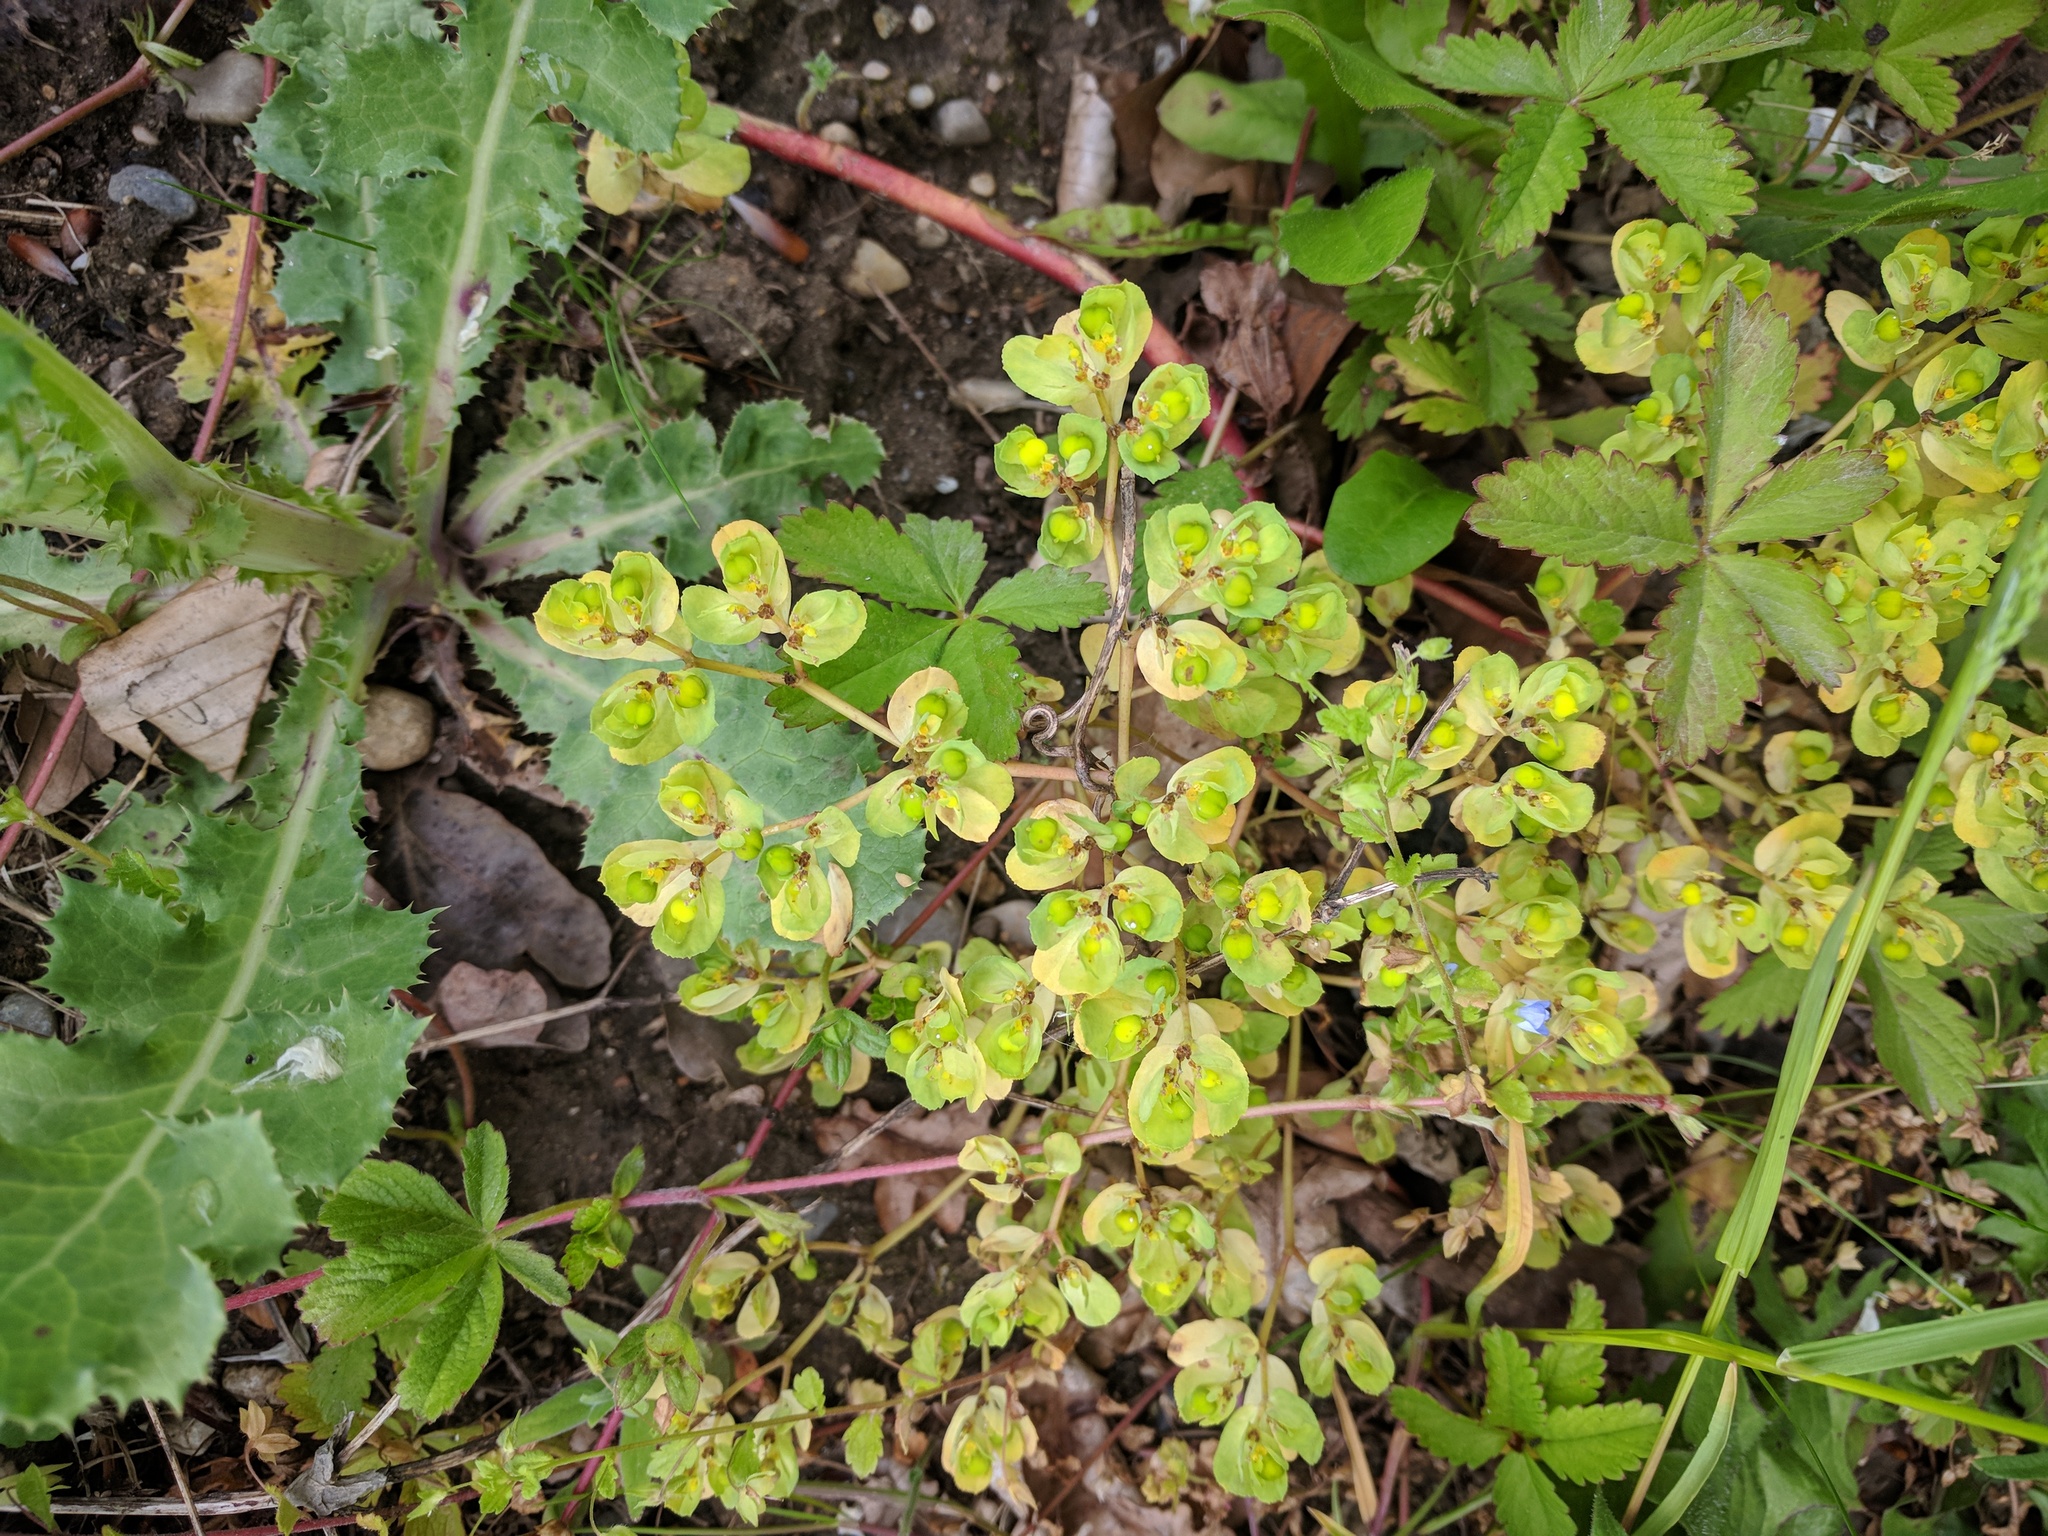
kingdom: Plantae
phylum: Tracheophyta
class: Magnoliopsida
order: Malpighiales
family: Euphorbiaceae
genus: Euphorbia
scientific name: Euphorbia helioscopia
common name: Sun spurge
